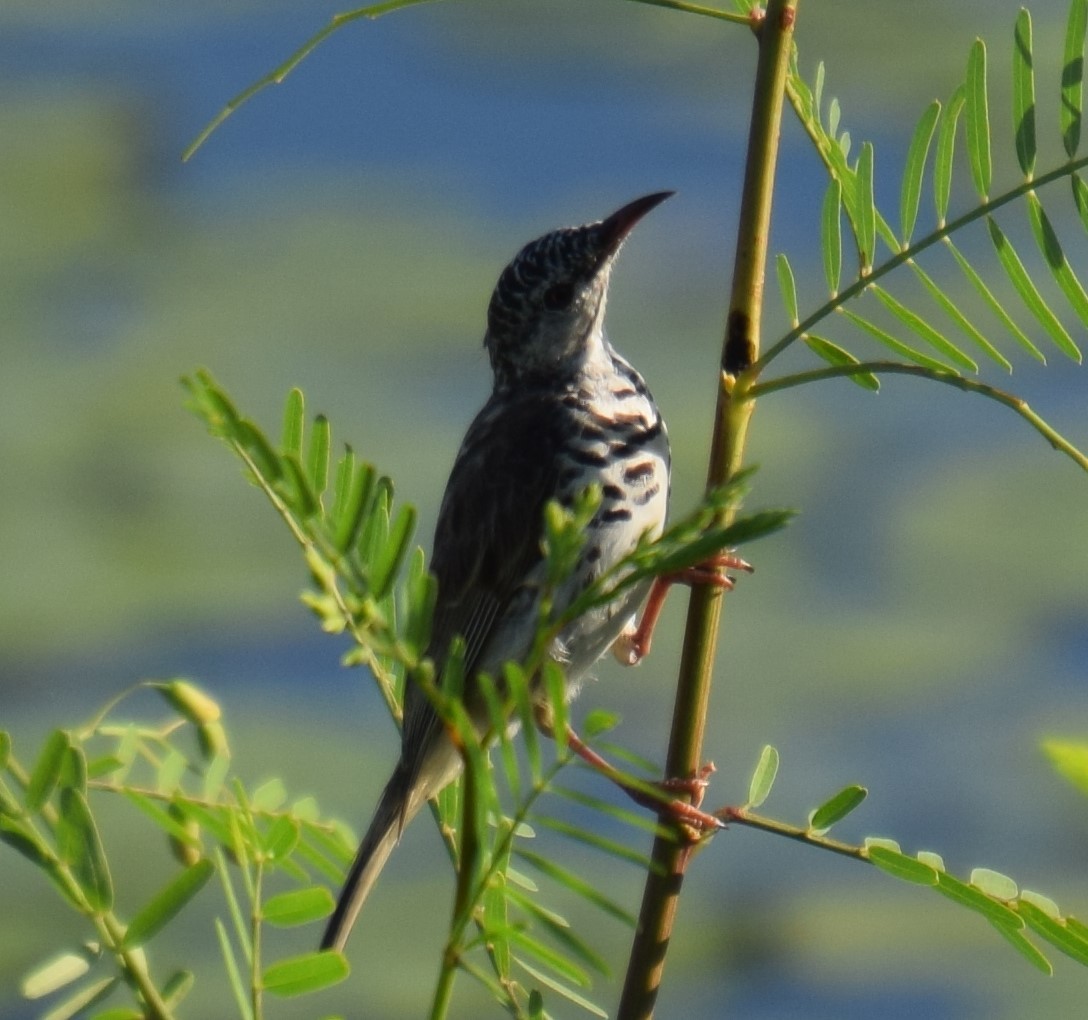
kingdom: Animalia
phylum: Chordata
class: Aves
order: Passeriformes
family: Meliphagidae
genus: Ramsayornis
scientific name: Ramsayornis fasciatus
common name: Bar-breasted honeyeater
